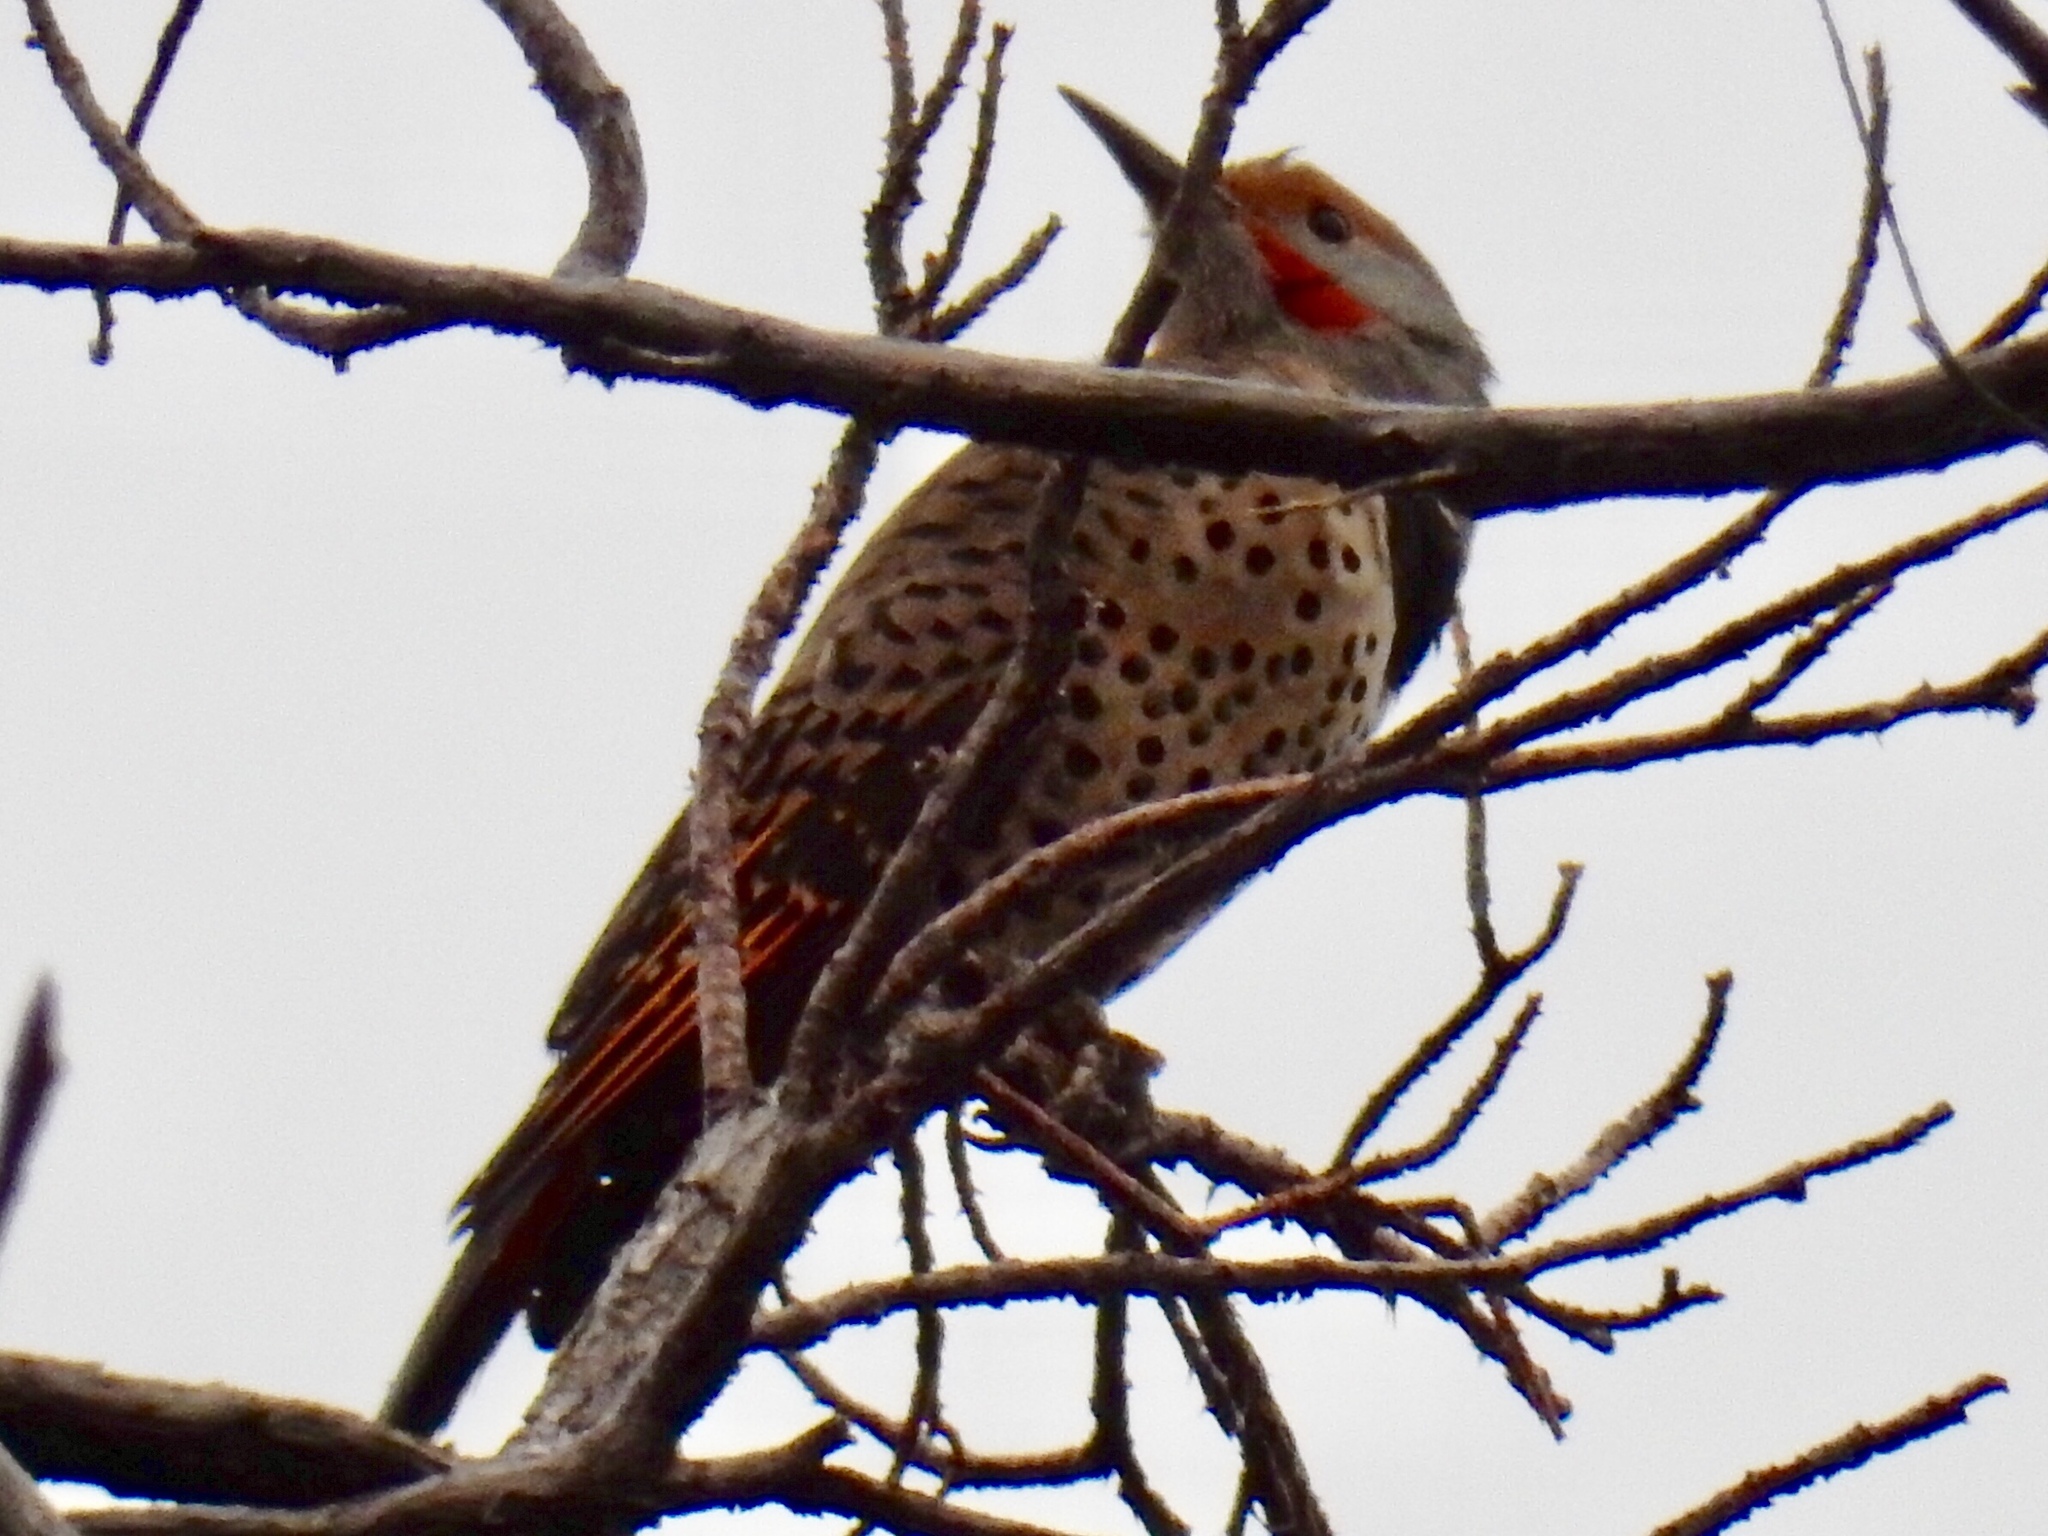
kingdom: Animalia
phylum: Chordata
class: Aves
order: Piciformes
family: Picidae
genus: Colaptes
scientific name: Colaptes auratus
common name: Northern flicker
